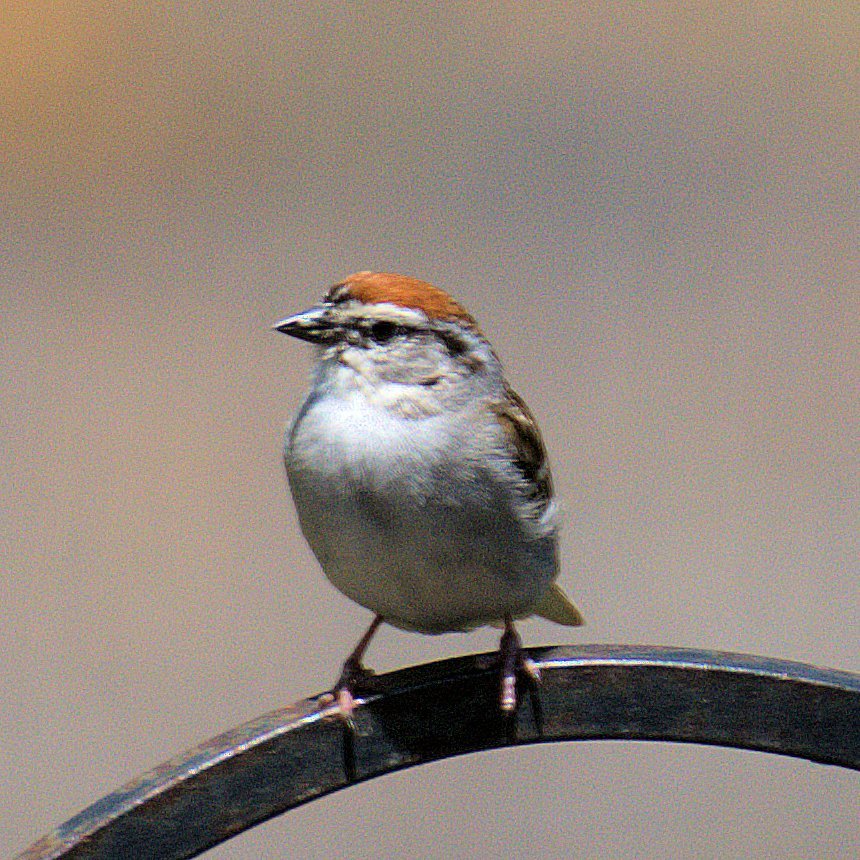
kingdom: Animalia
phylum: Chordata
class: Aves
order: Passeriformes
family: Passerellidae
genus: Spizella
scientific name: Spizella passerina
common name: Chipping sparrow
